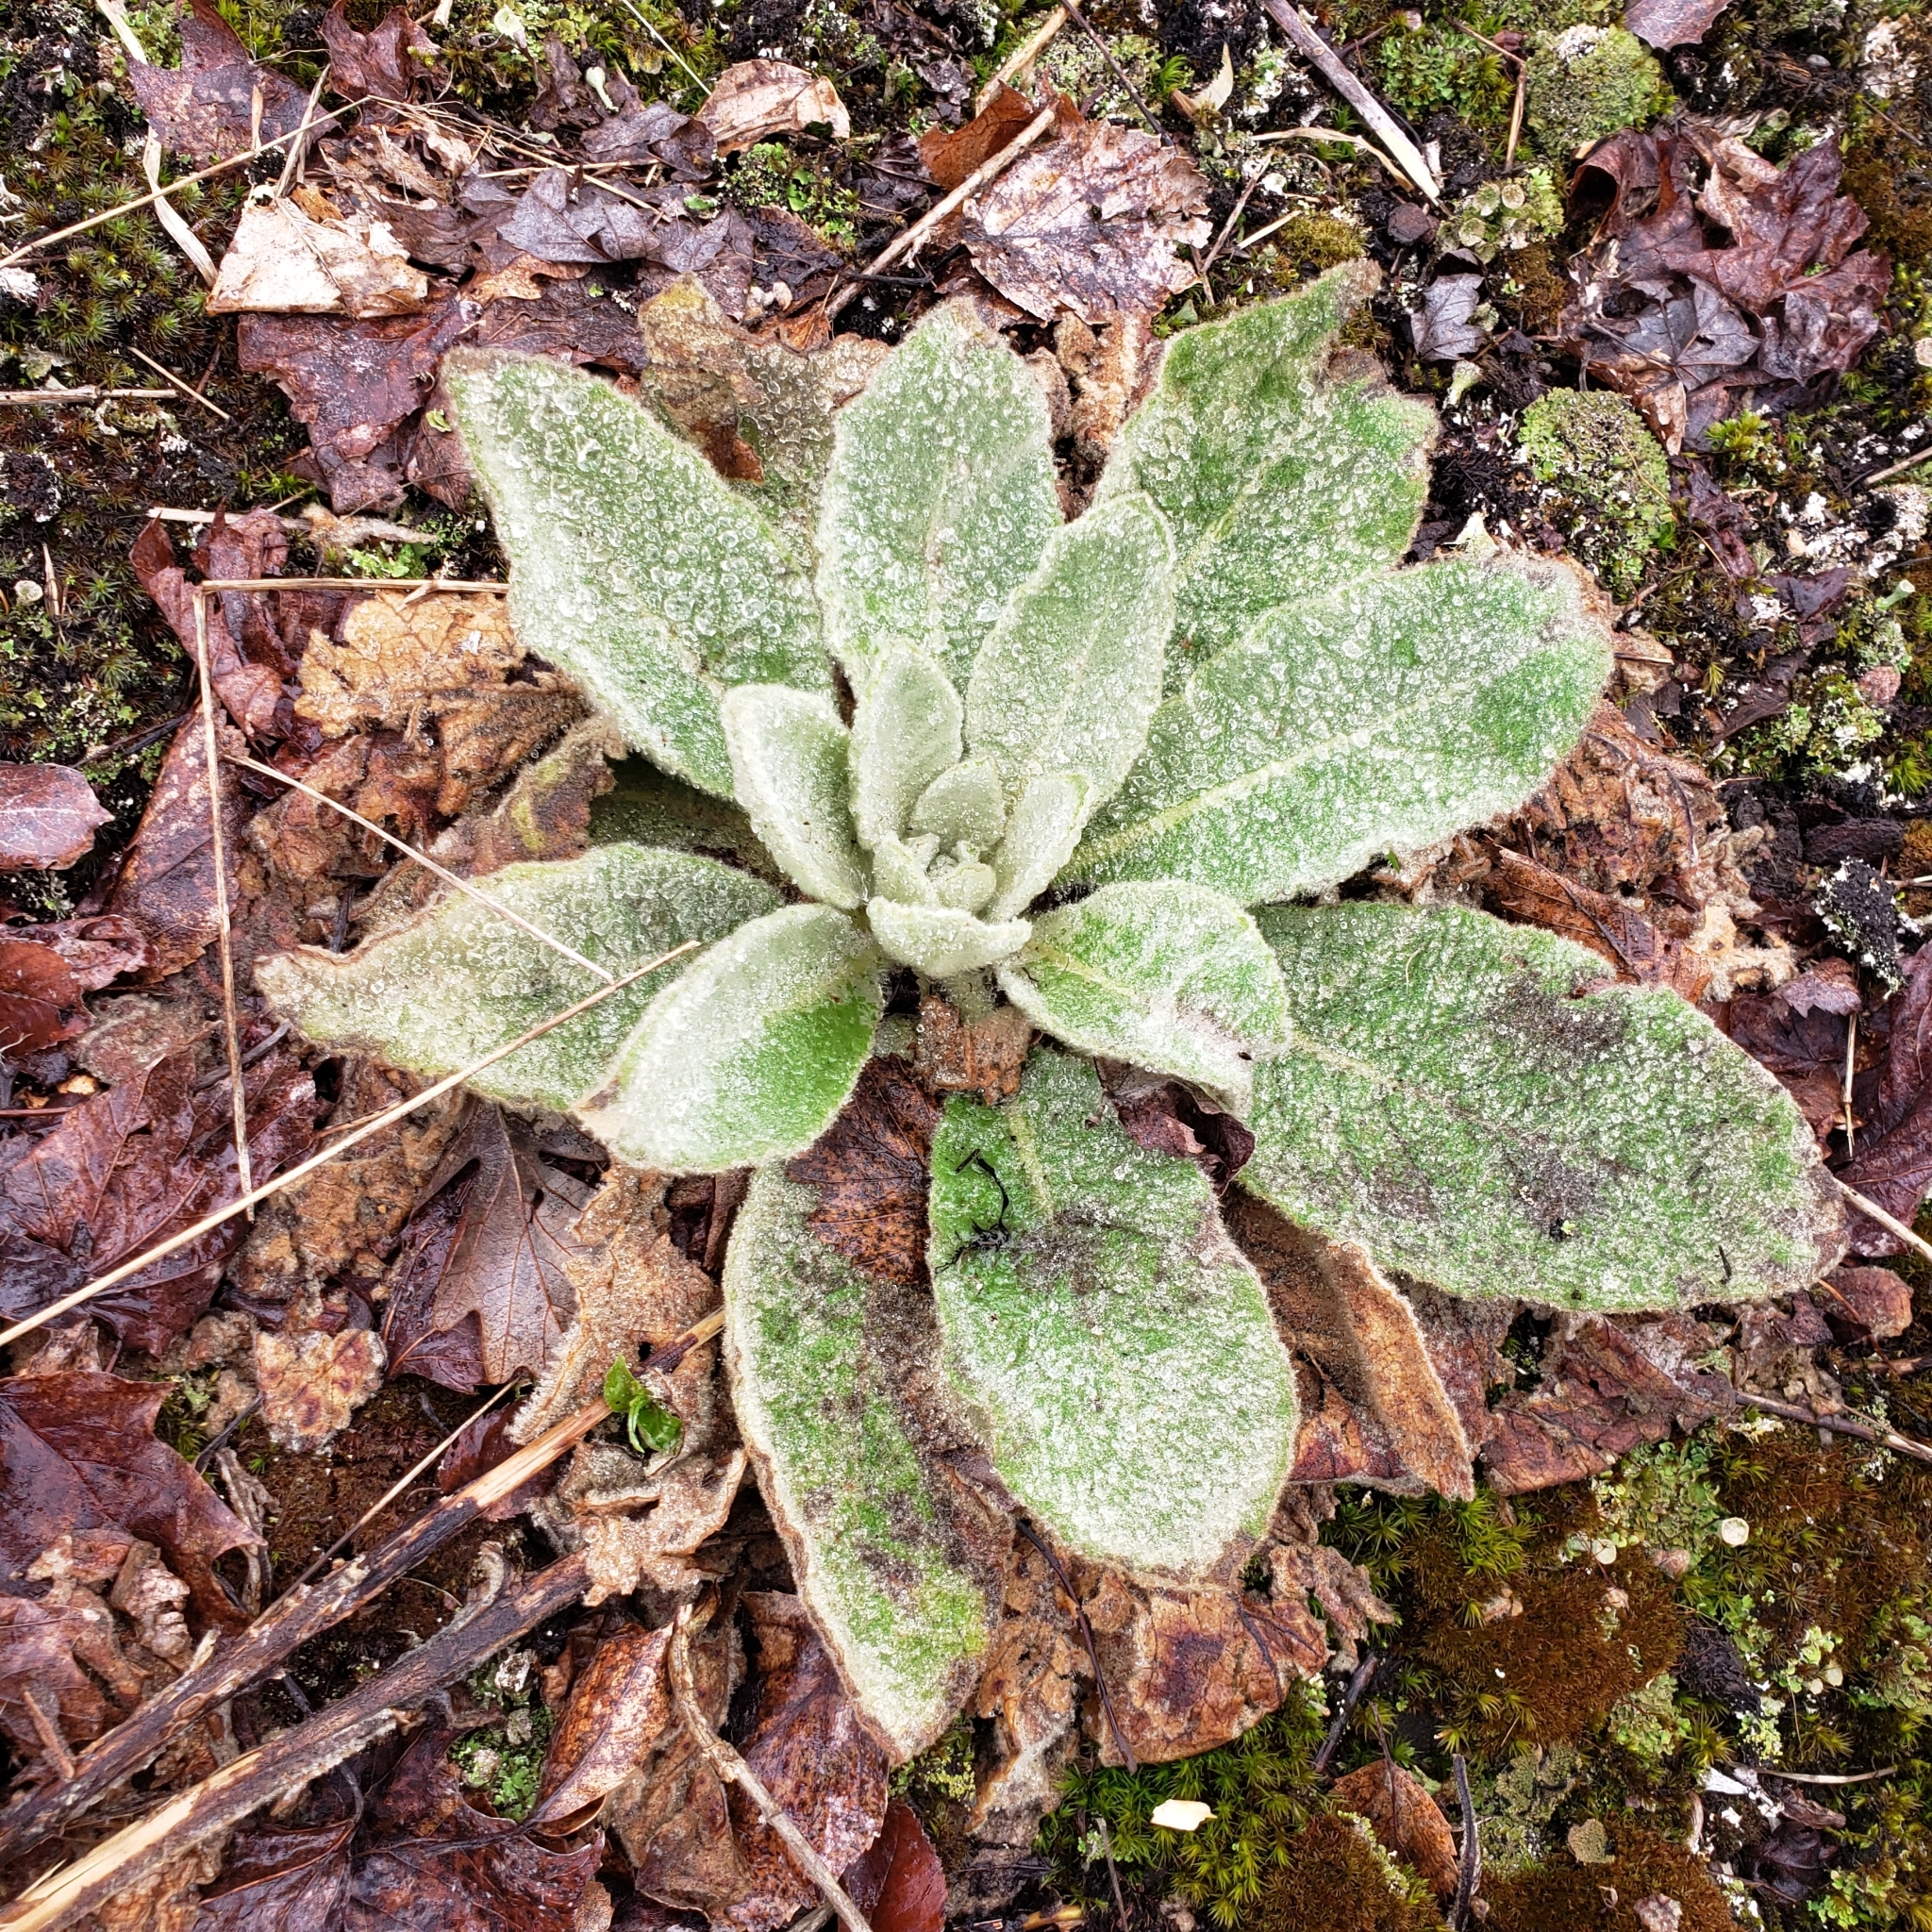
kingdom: Plantae
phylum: Tracheophyta
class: Magnoliopsida
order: Lamiales
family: Scrophulariaceae
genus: Verbascum
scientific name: Verbascum thapsus
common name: Common mullein
